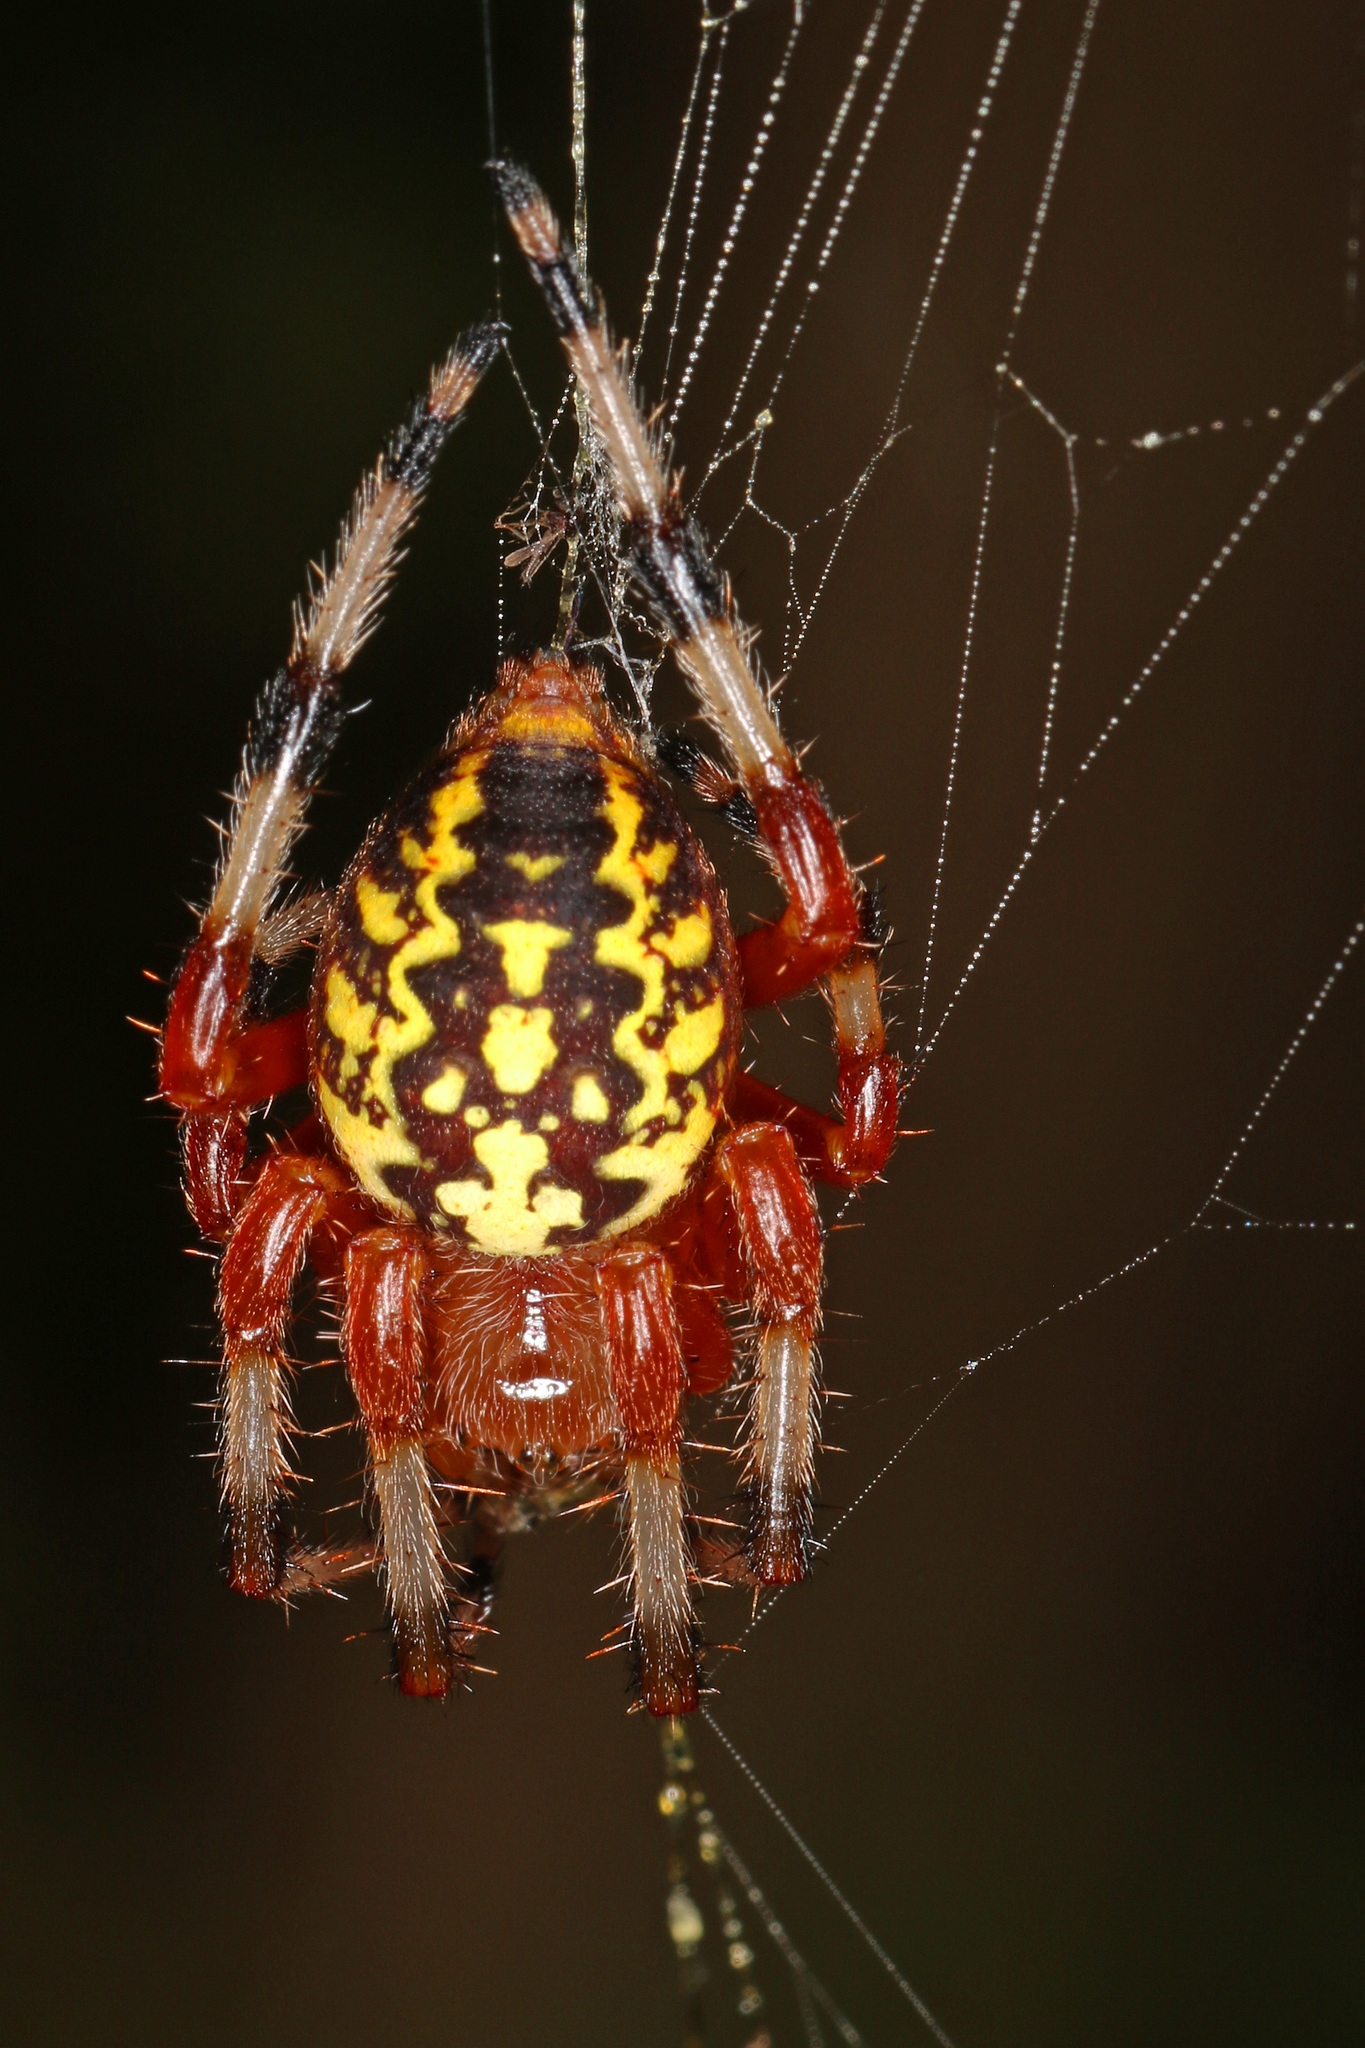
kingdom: Animalia
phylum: Arthropoda
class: Arachnida
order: Araneae
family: Araneidae
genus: Araneus
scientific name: Araneus marmoreus
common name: Marbled orbweaver
